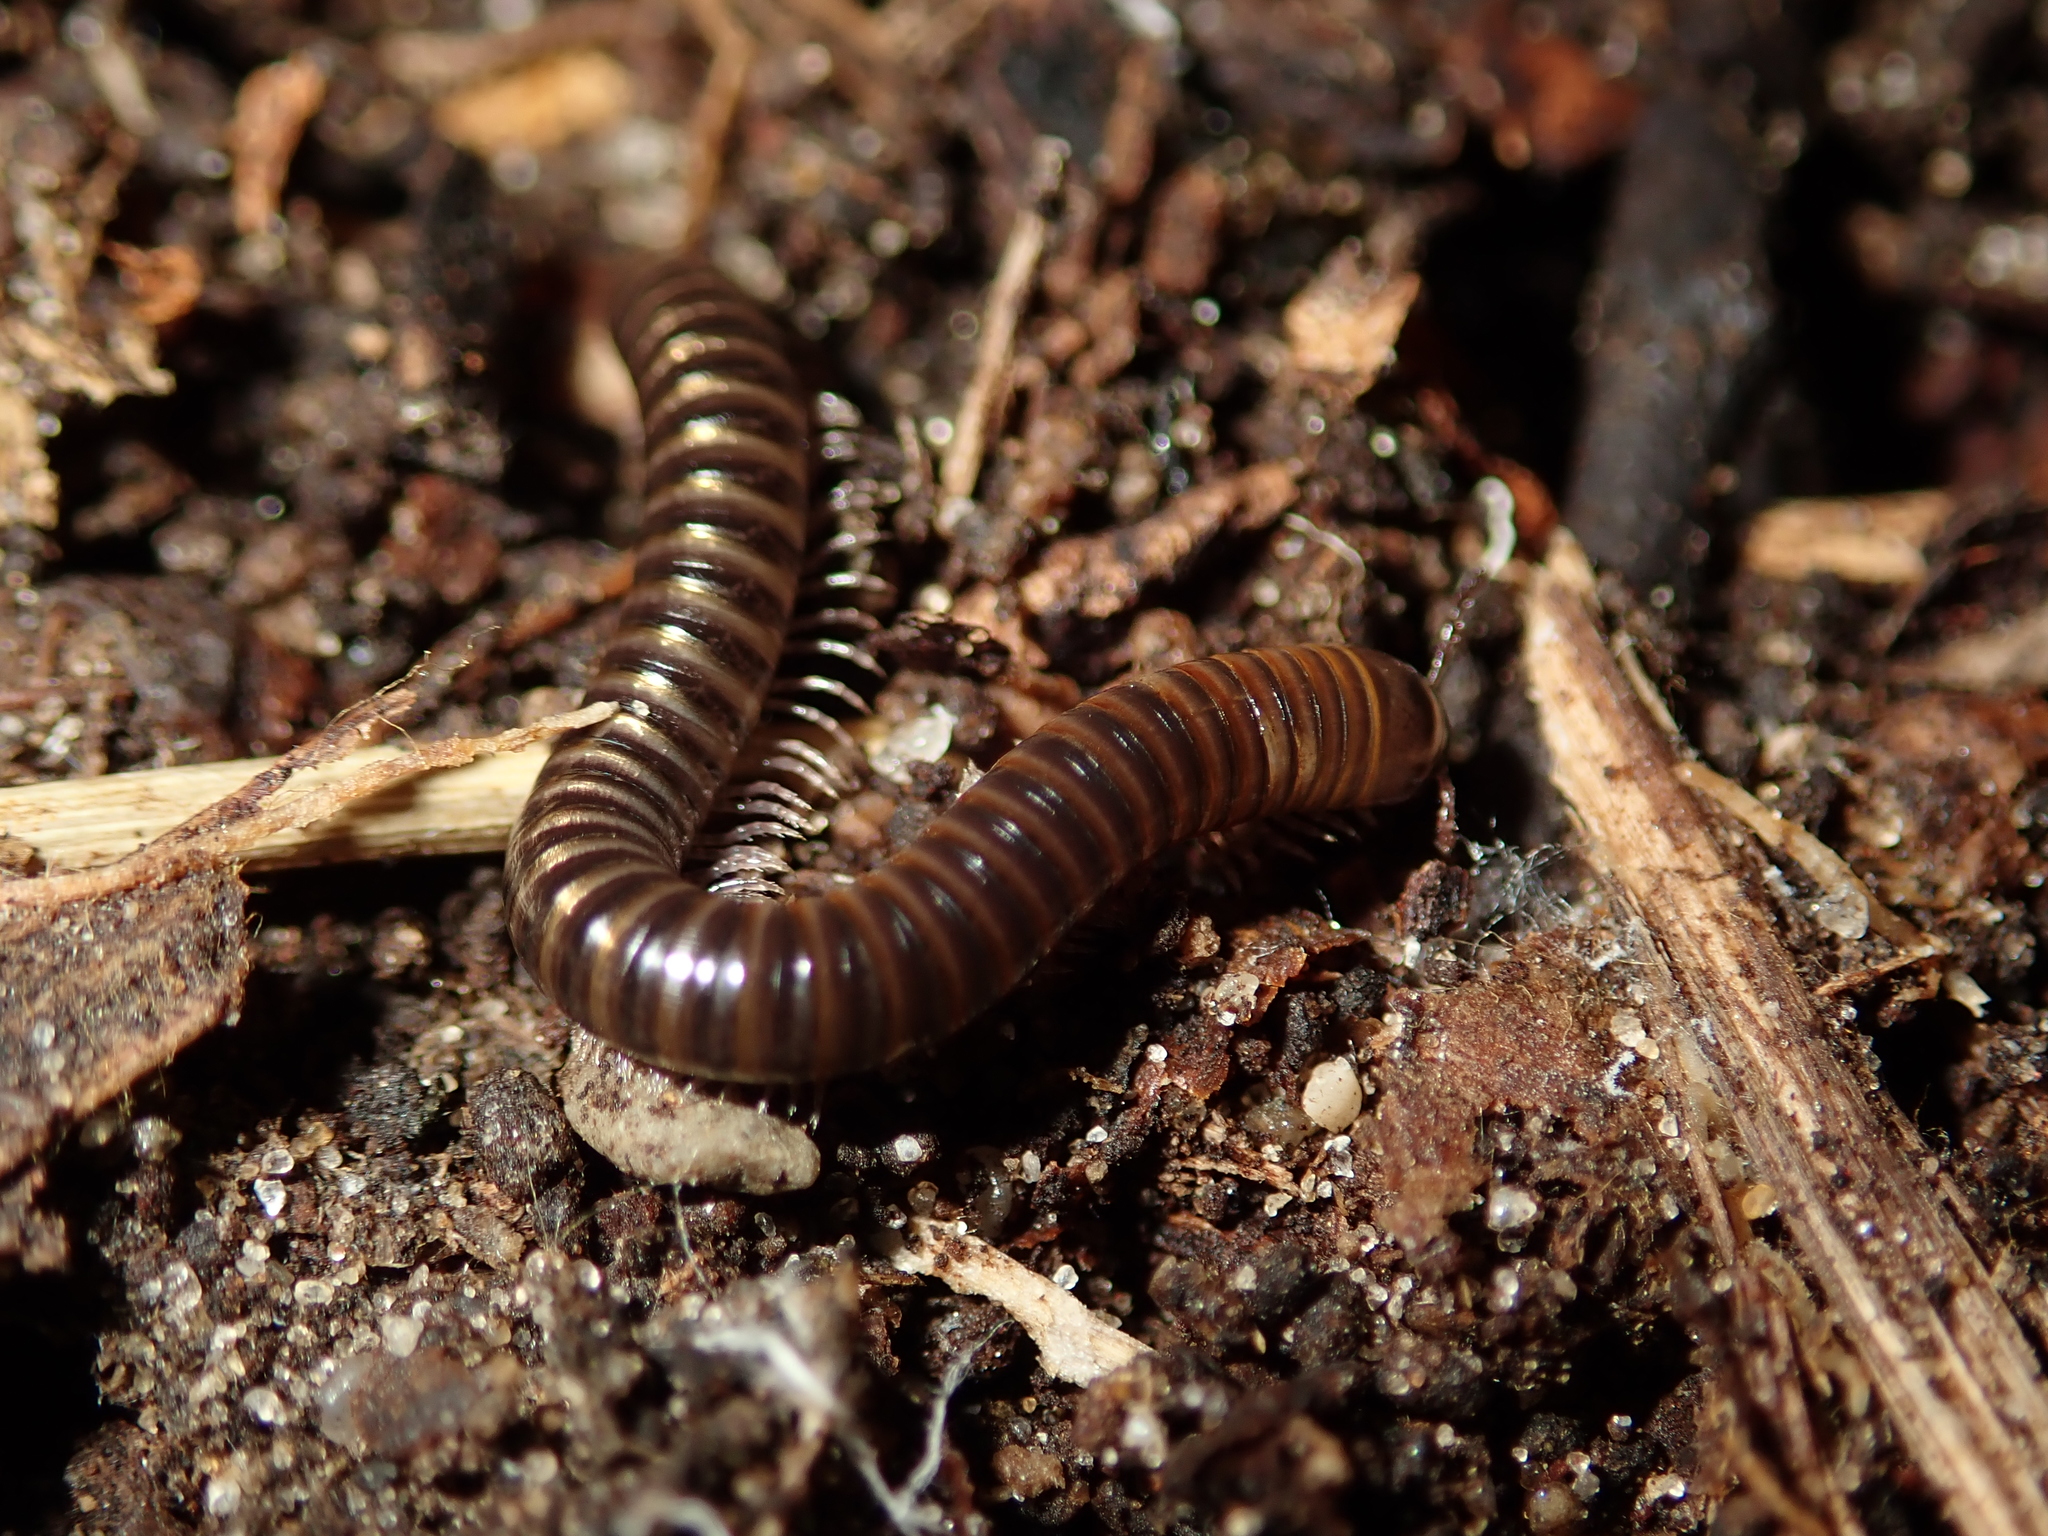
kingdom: Animalia
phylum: Arthropoda
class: Diplopoda
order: Julida
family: Julidae
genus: Cylindroiulus
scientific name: Cylindroiulus caeruleocinctus
